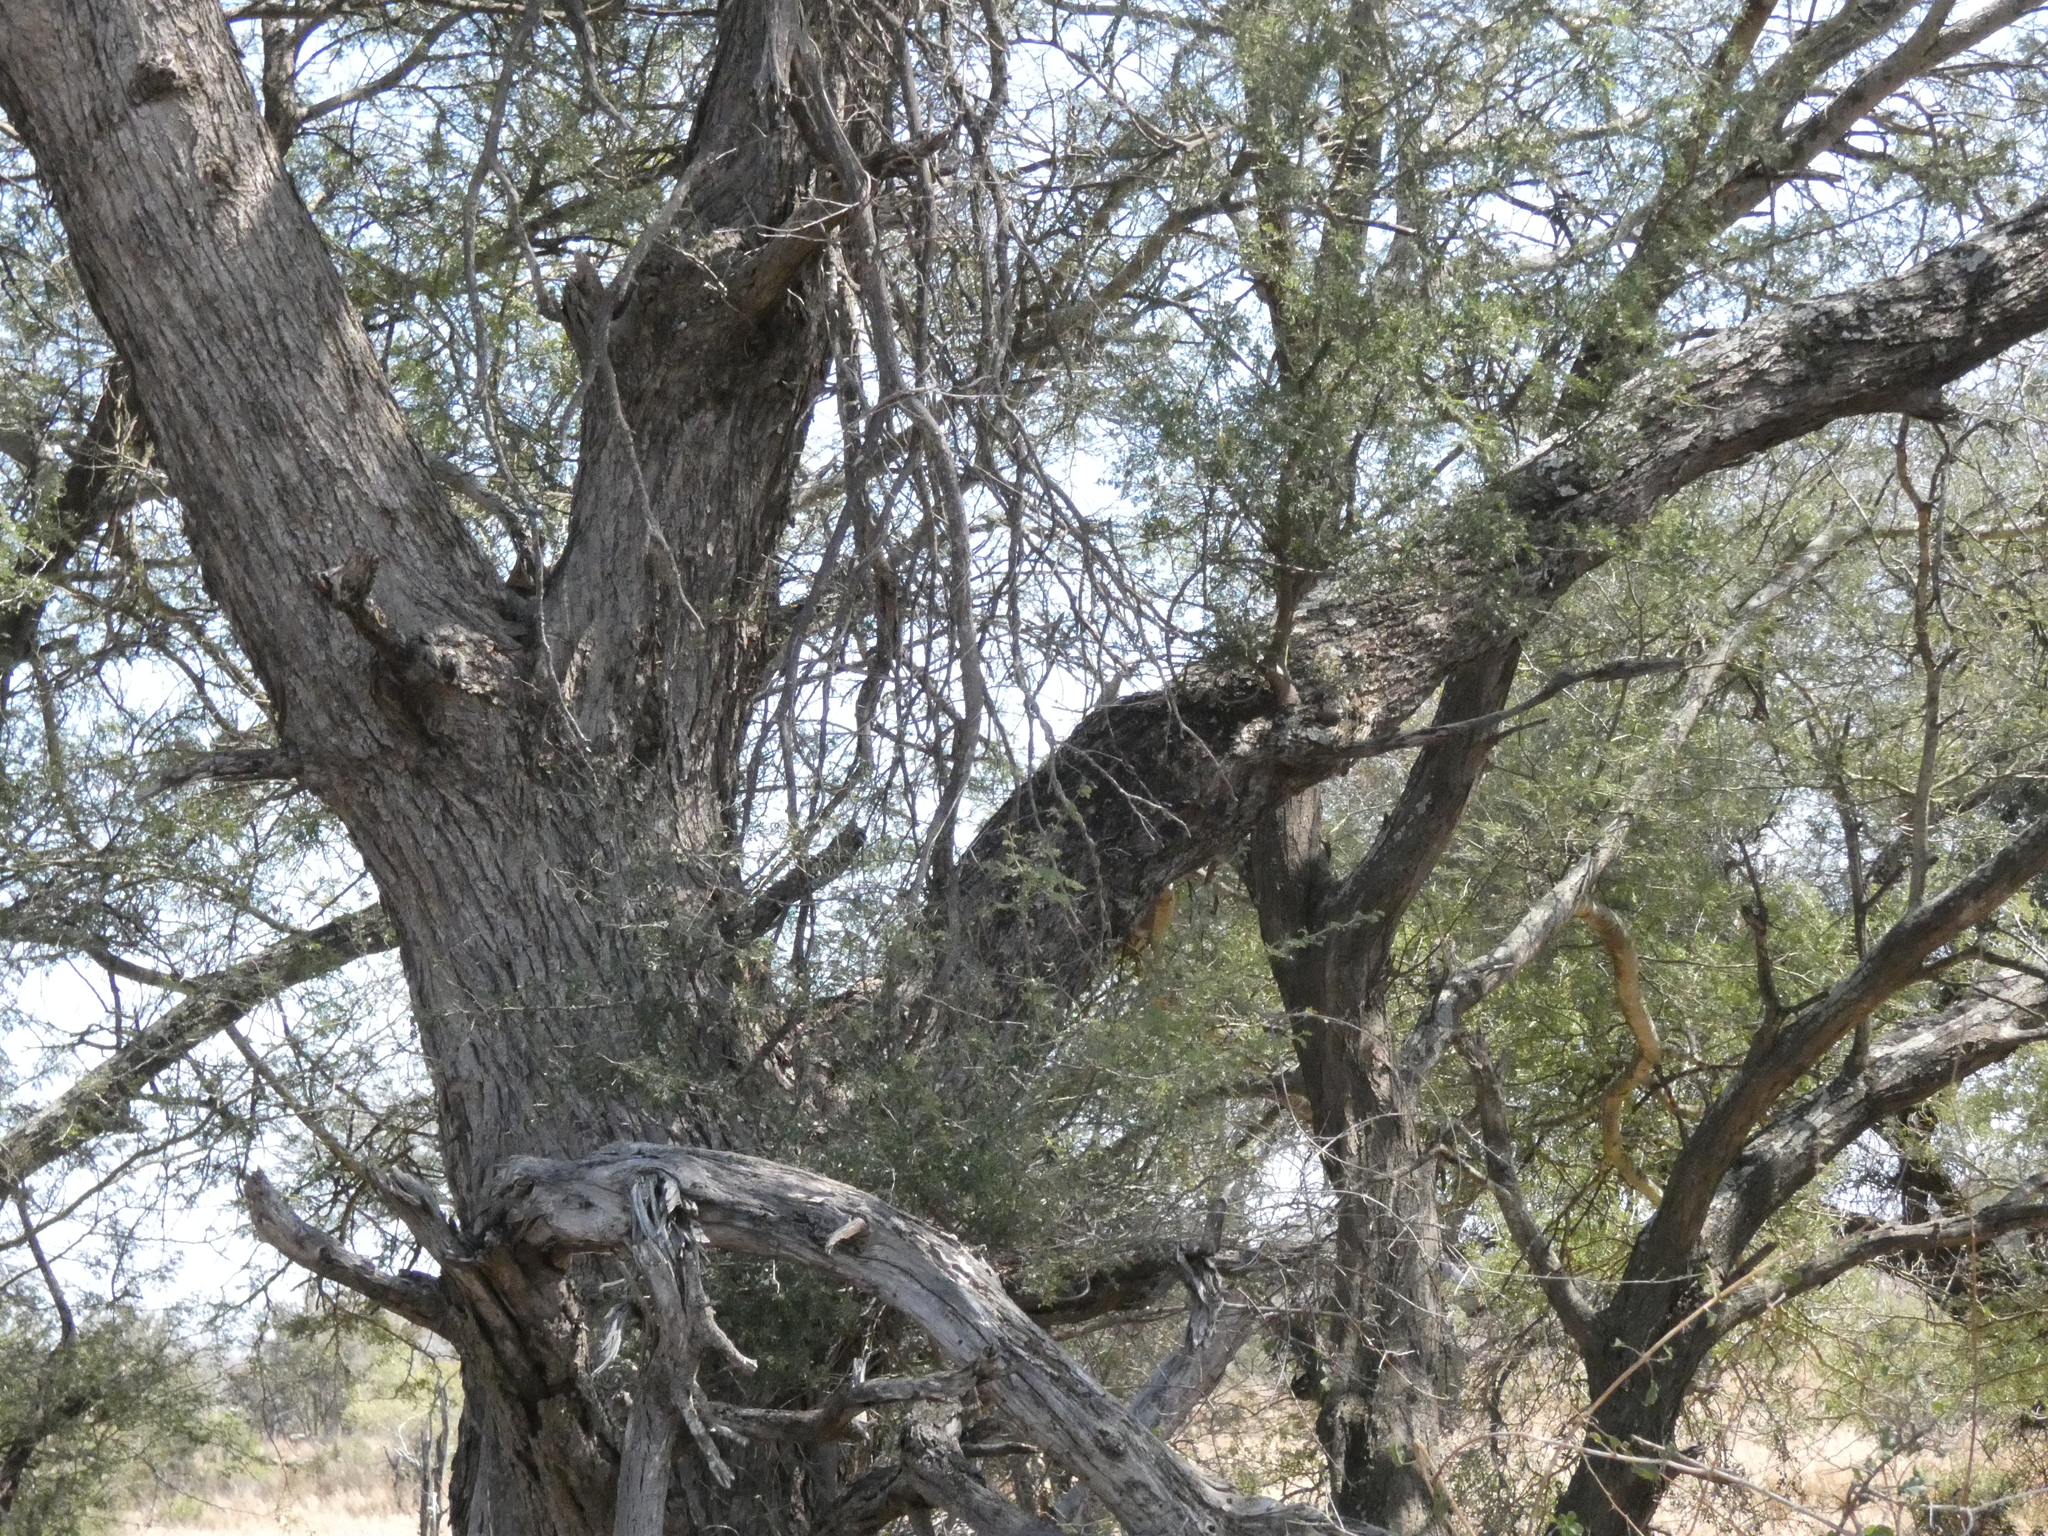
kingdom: Plantae
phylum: Tracheophyta
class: Magnoliopsida
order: Fabales
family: Fabaceae
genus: Senegalia
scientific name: Senegalia welwitschii
